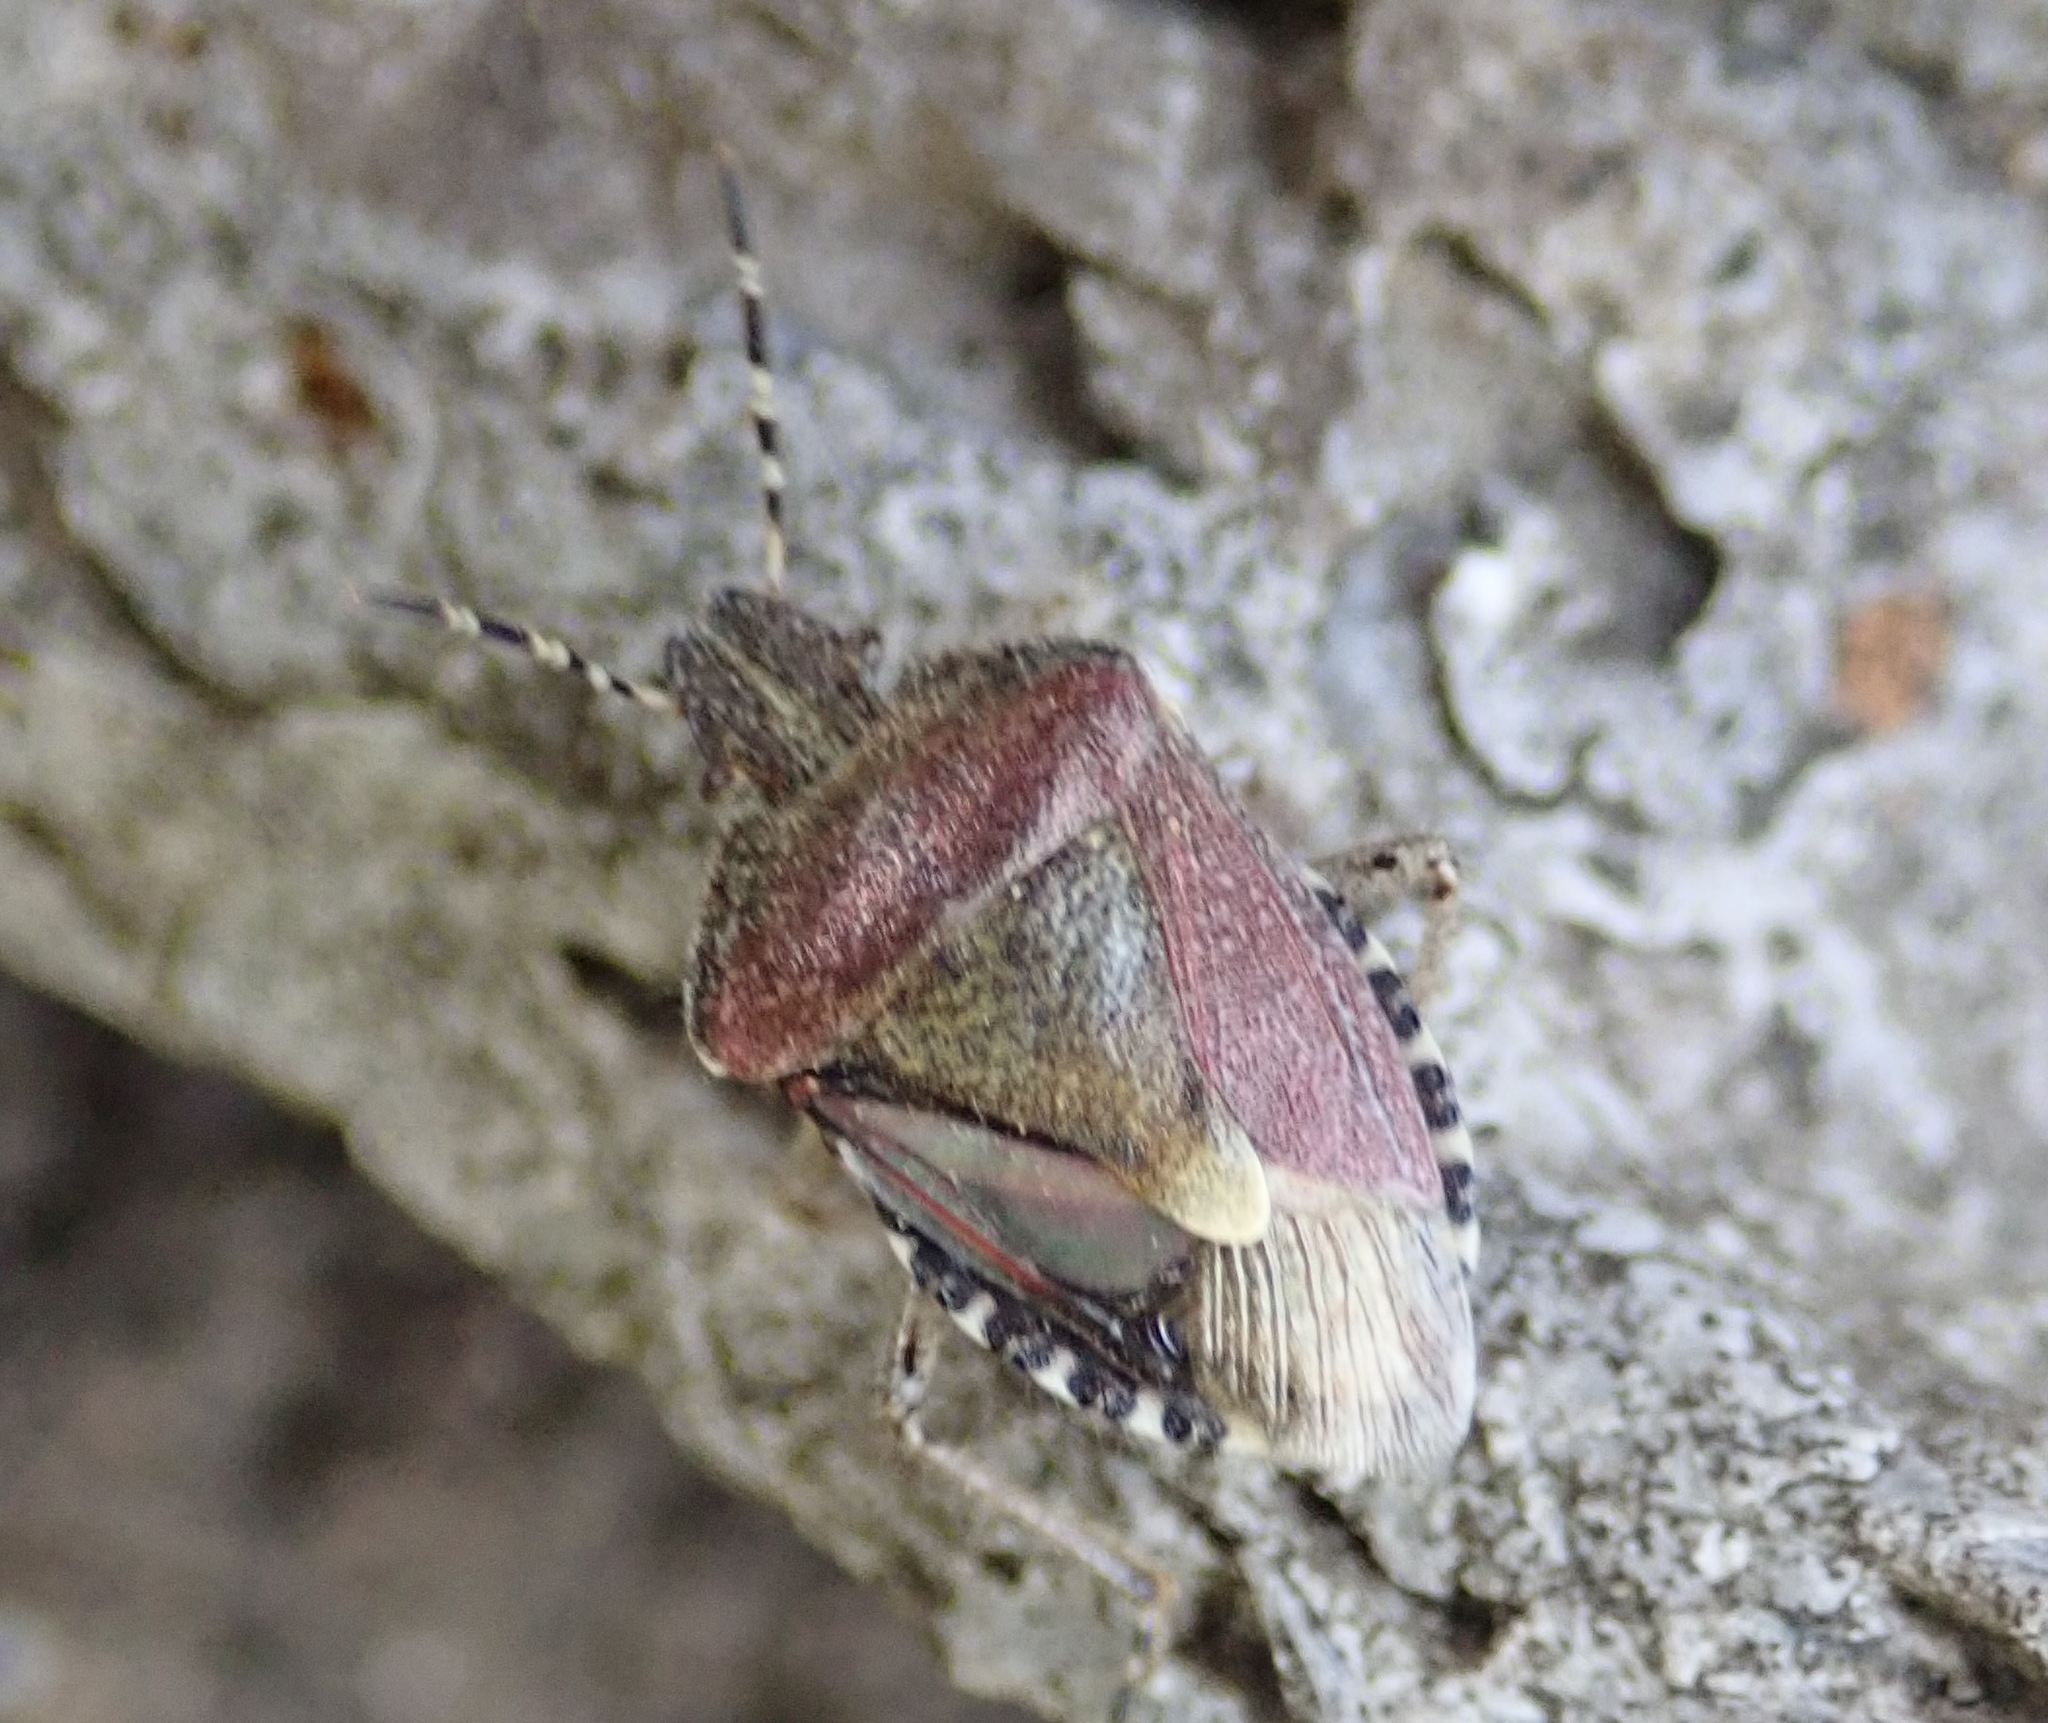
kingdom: Animalia
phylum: Arthropoda
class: Insecta
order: Hemiptera
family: Pentatomidae
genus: Dolycoris
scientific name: Dolycoris baccarum
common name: Sloe bug
